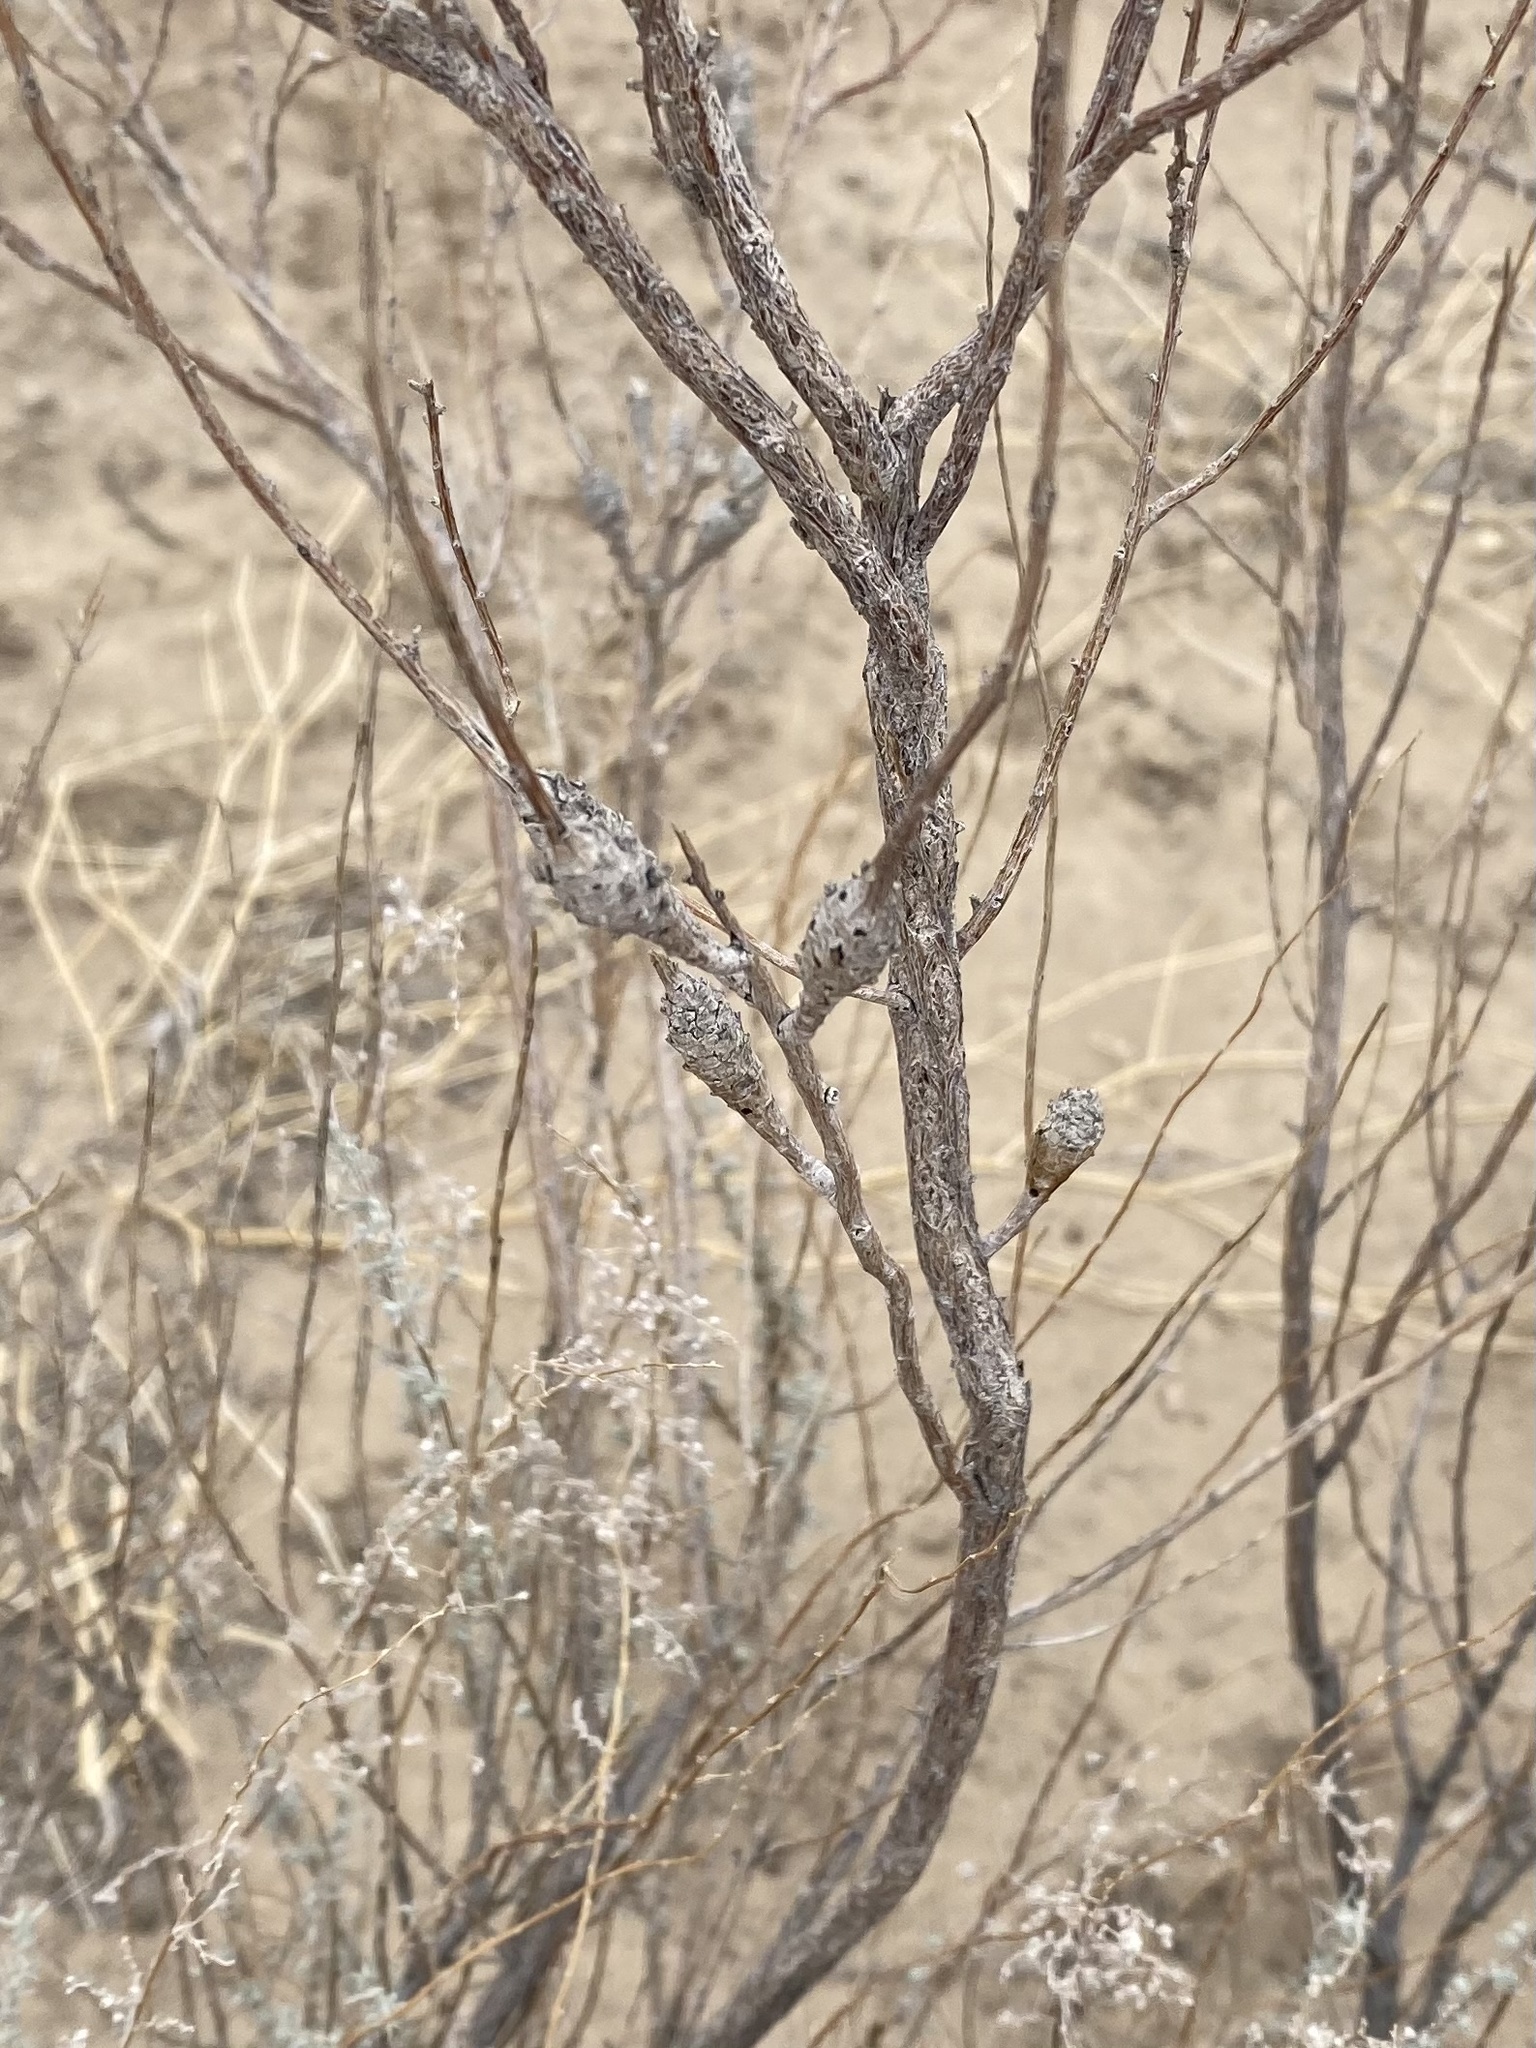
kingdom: Animalia
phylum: Arthropoda
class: Insecta
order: Diptera
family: Tephritidae
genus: Eutreta
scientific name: Eutreta diana
